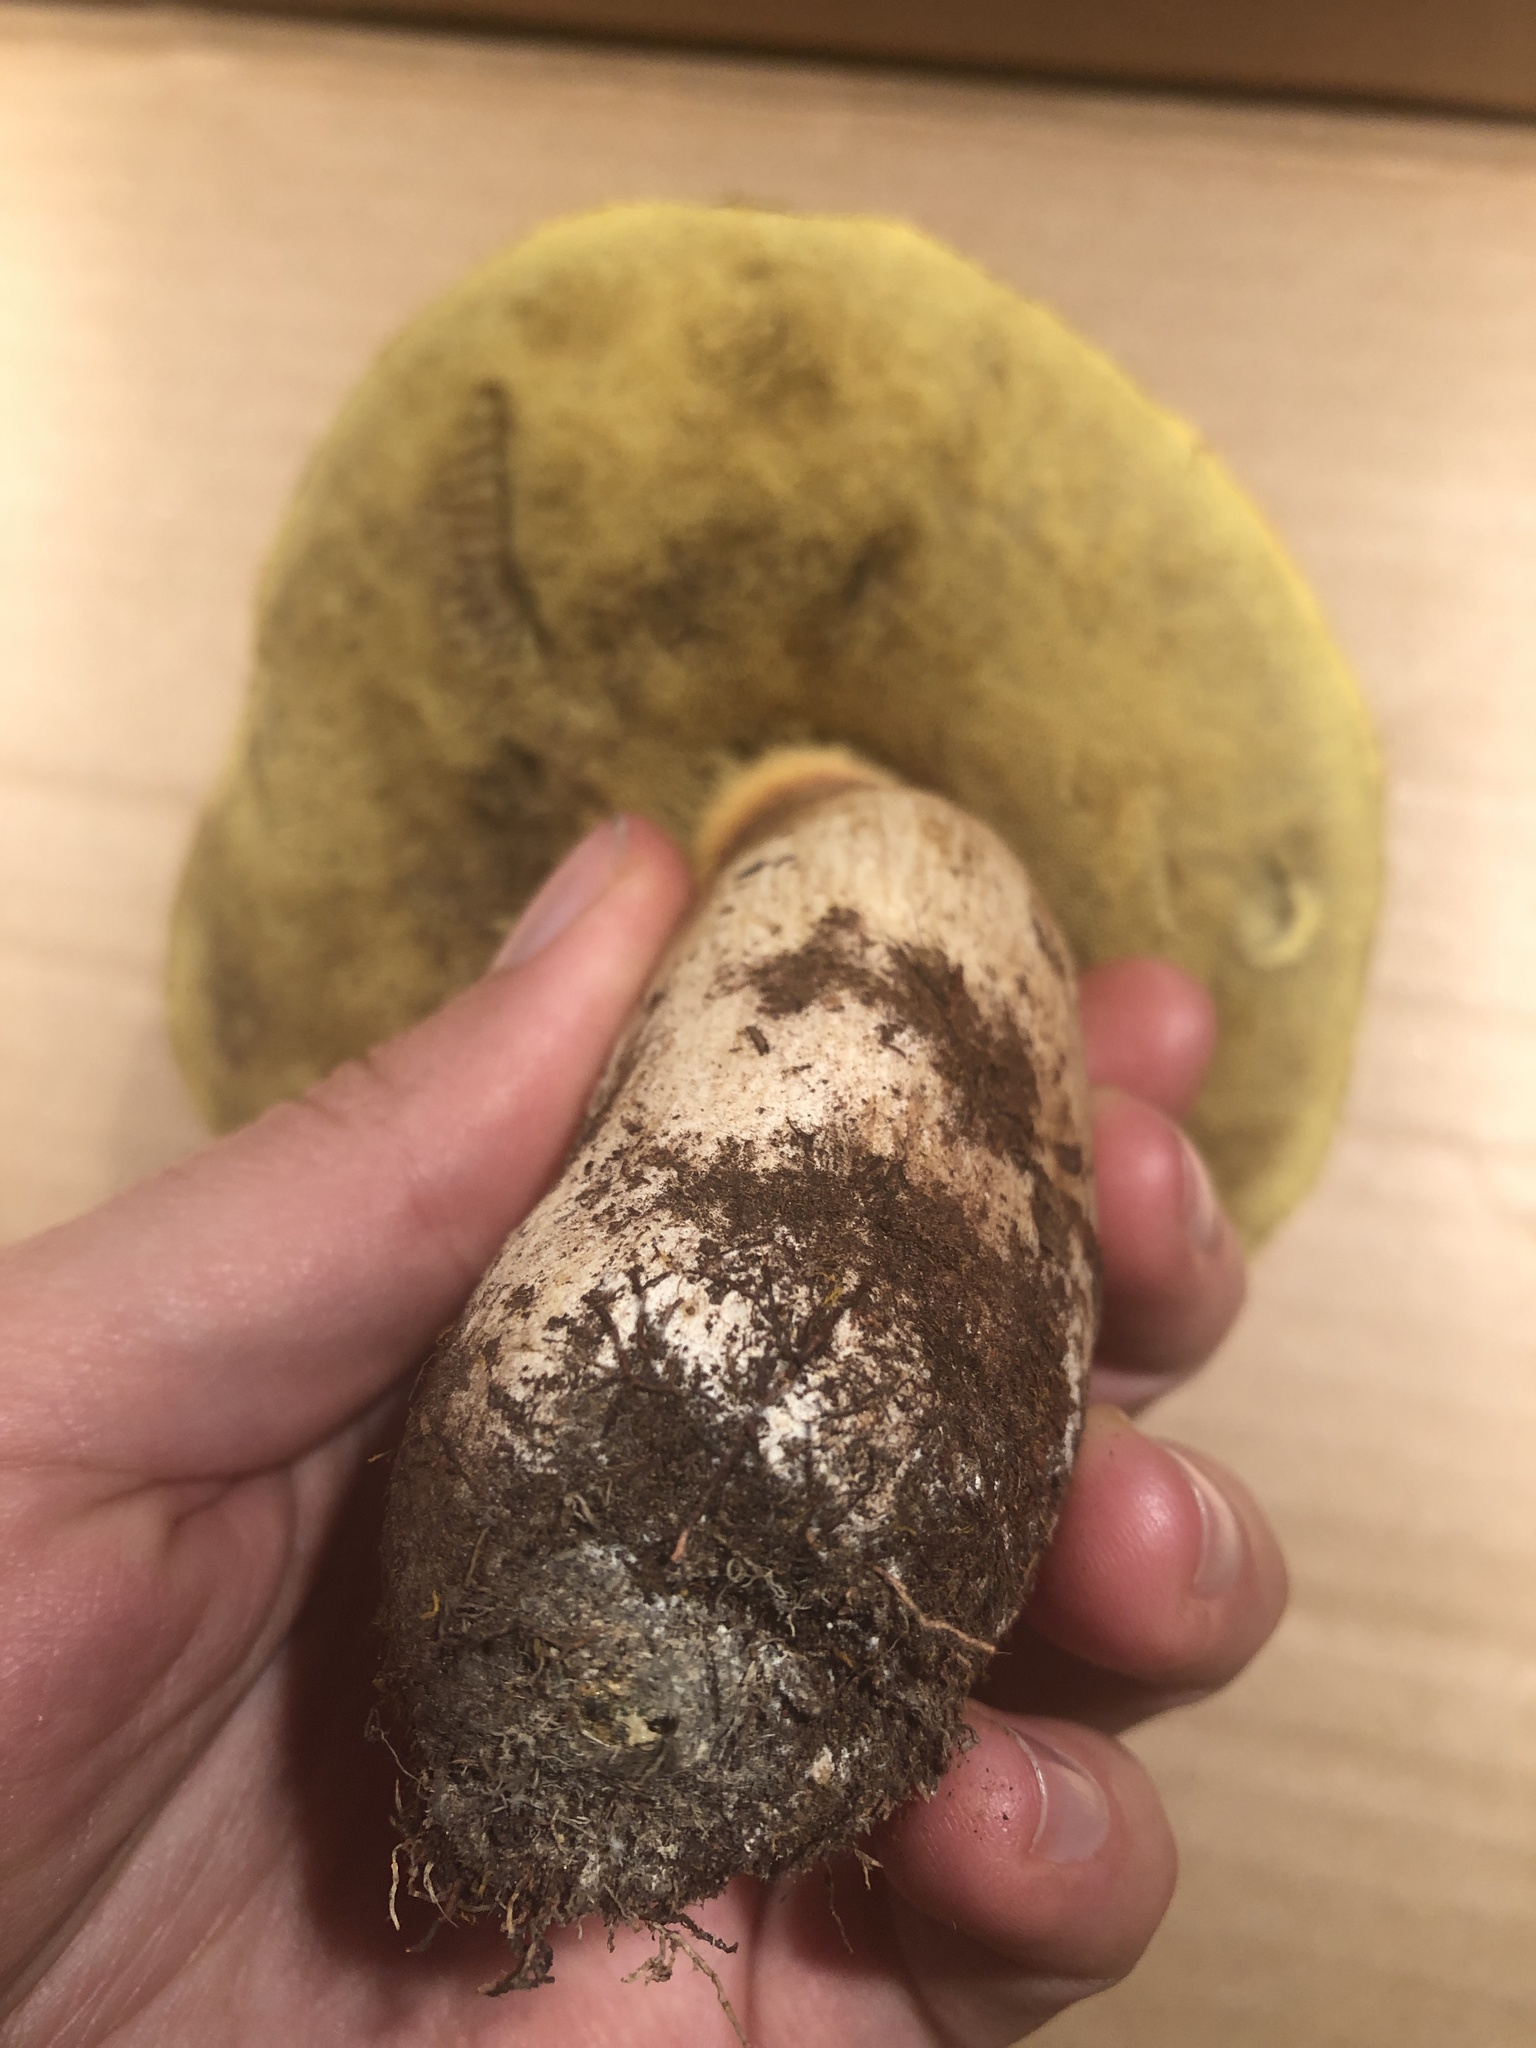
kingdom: Fungi
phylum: Basidiomycota
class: Agaricomycetes
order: Boletales
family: Boletaceae
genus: Boletus
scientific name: Boletus chippewaensis
